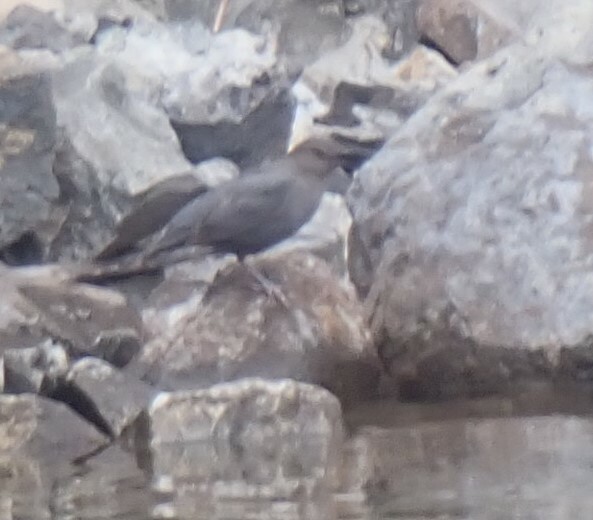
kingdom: Animalia
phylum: Chordata
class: Aves
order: Passeriformes
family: Cinclidae
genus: Cinclus
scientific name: Cinclus mexicanus
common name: American dipper
